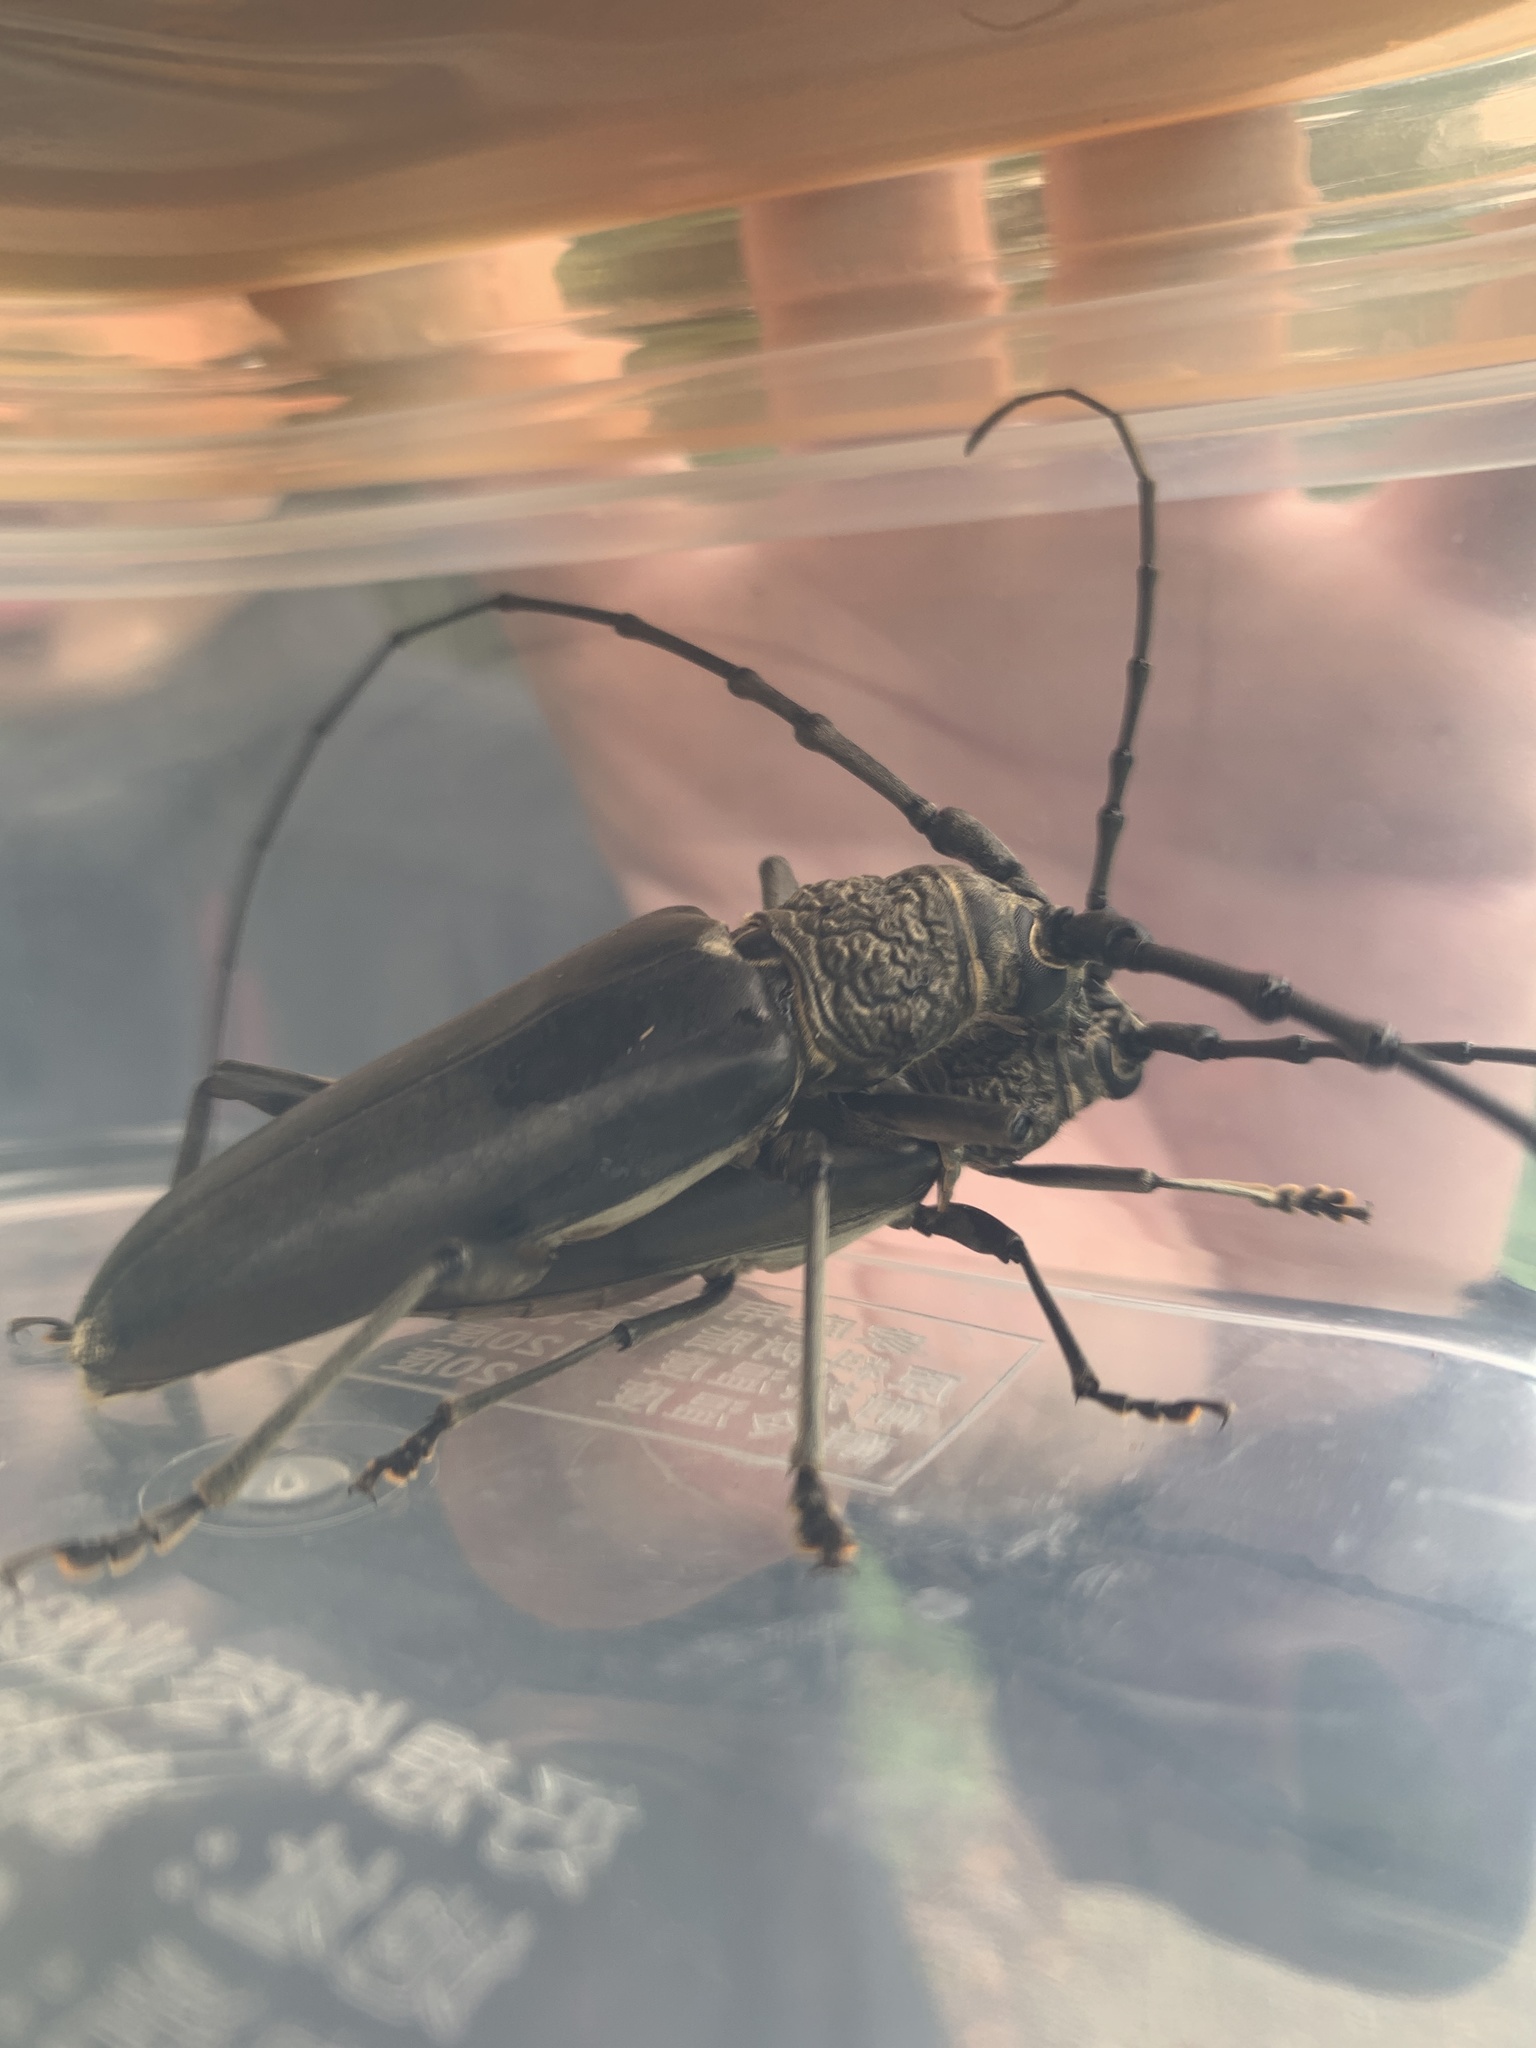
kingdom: Animalia
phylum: Arthropoda
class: Insecta
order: Coleoptera
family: Cerambycidae
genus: Nadezhdiella
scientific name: Nadezhdiella cantori
